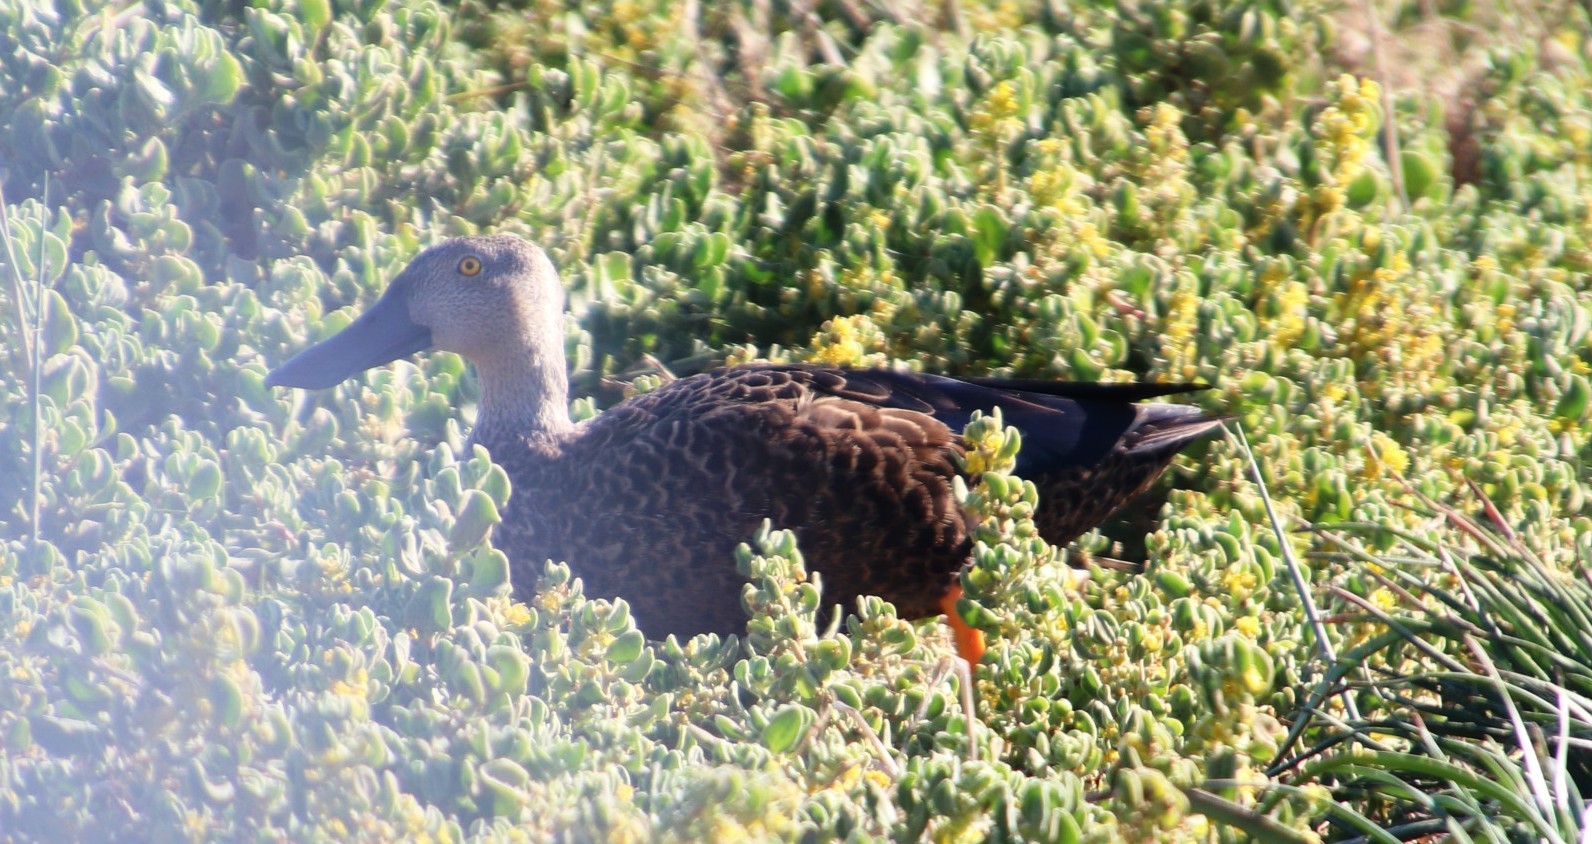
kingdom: Animalia
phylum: Chordata
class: Aves
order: Anseriformes
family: Anatidae
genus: Spatula
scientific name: Spatula smithii
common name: Cape shoveler
